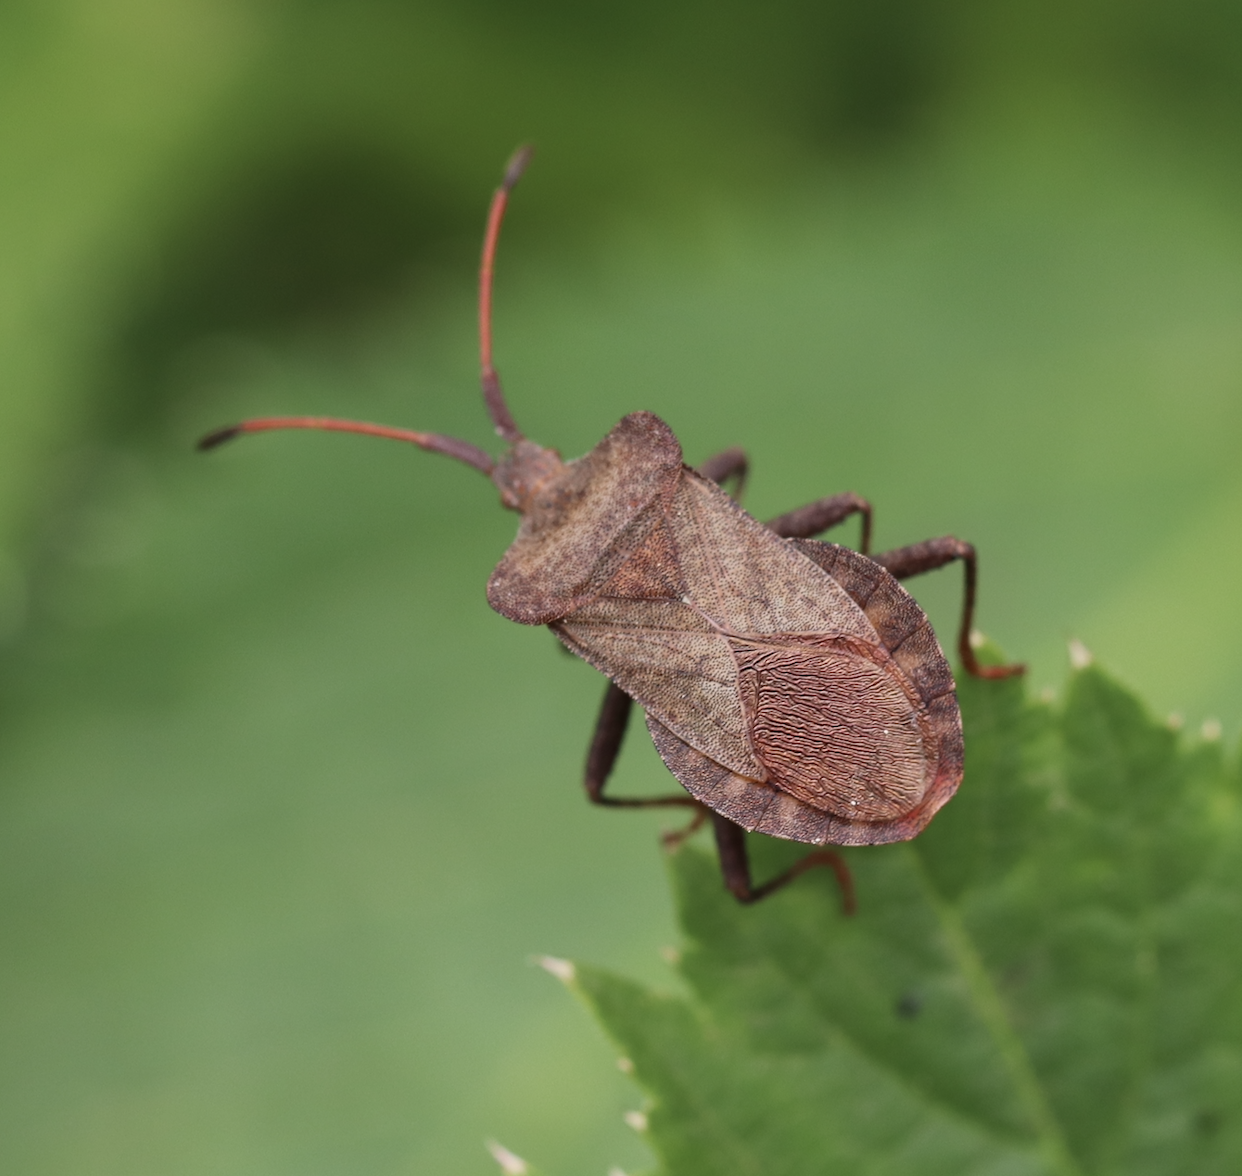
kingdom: Animalia
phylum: Arthropoda
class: Insecta
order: Hemiptera
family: Coreidae
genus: Coreus
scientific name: Coreus marginatus
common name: Dock bug
